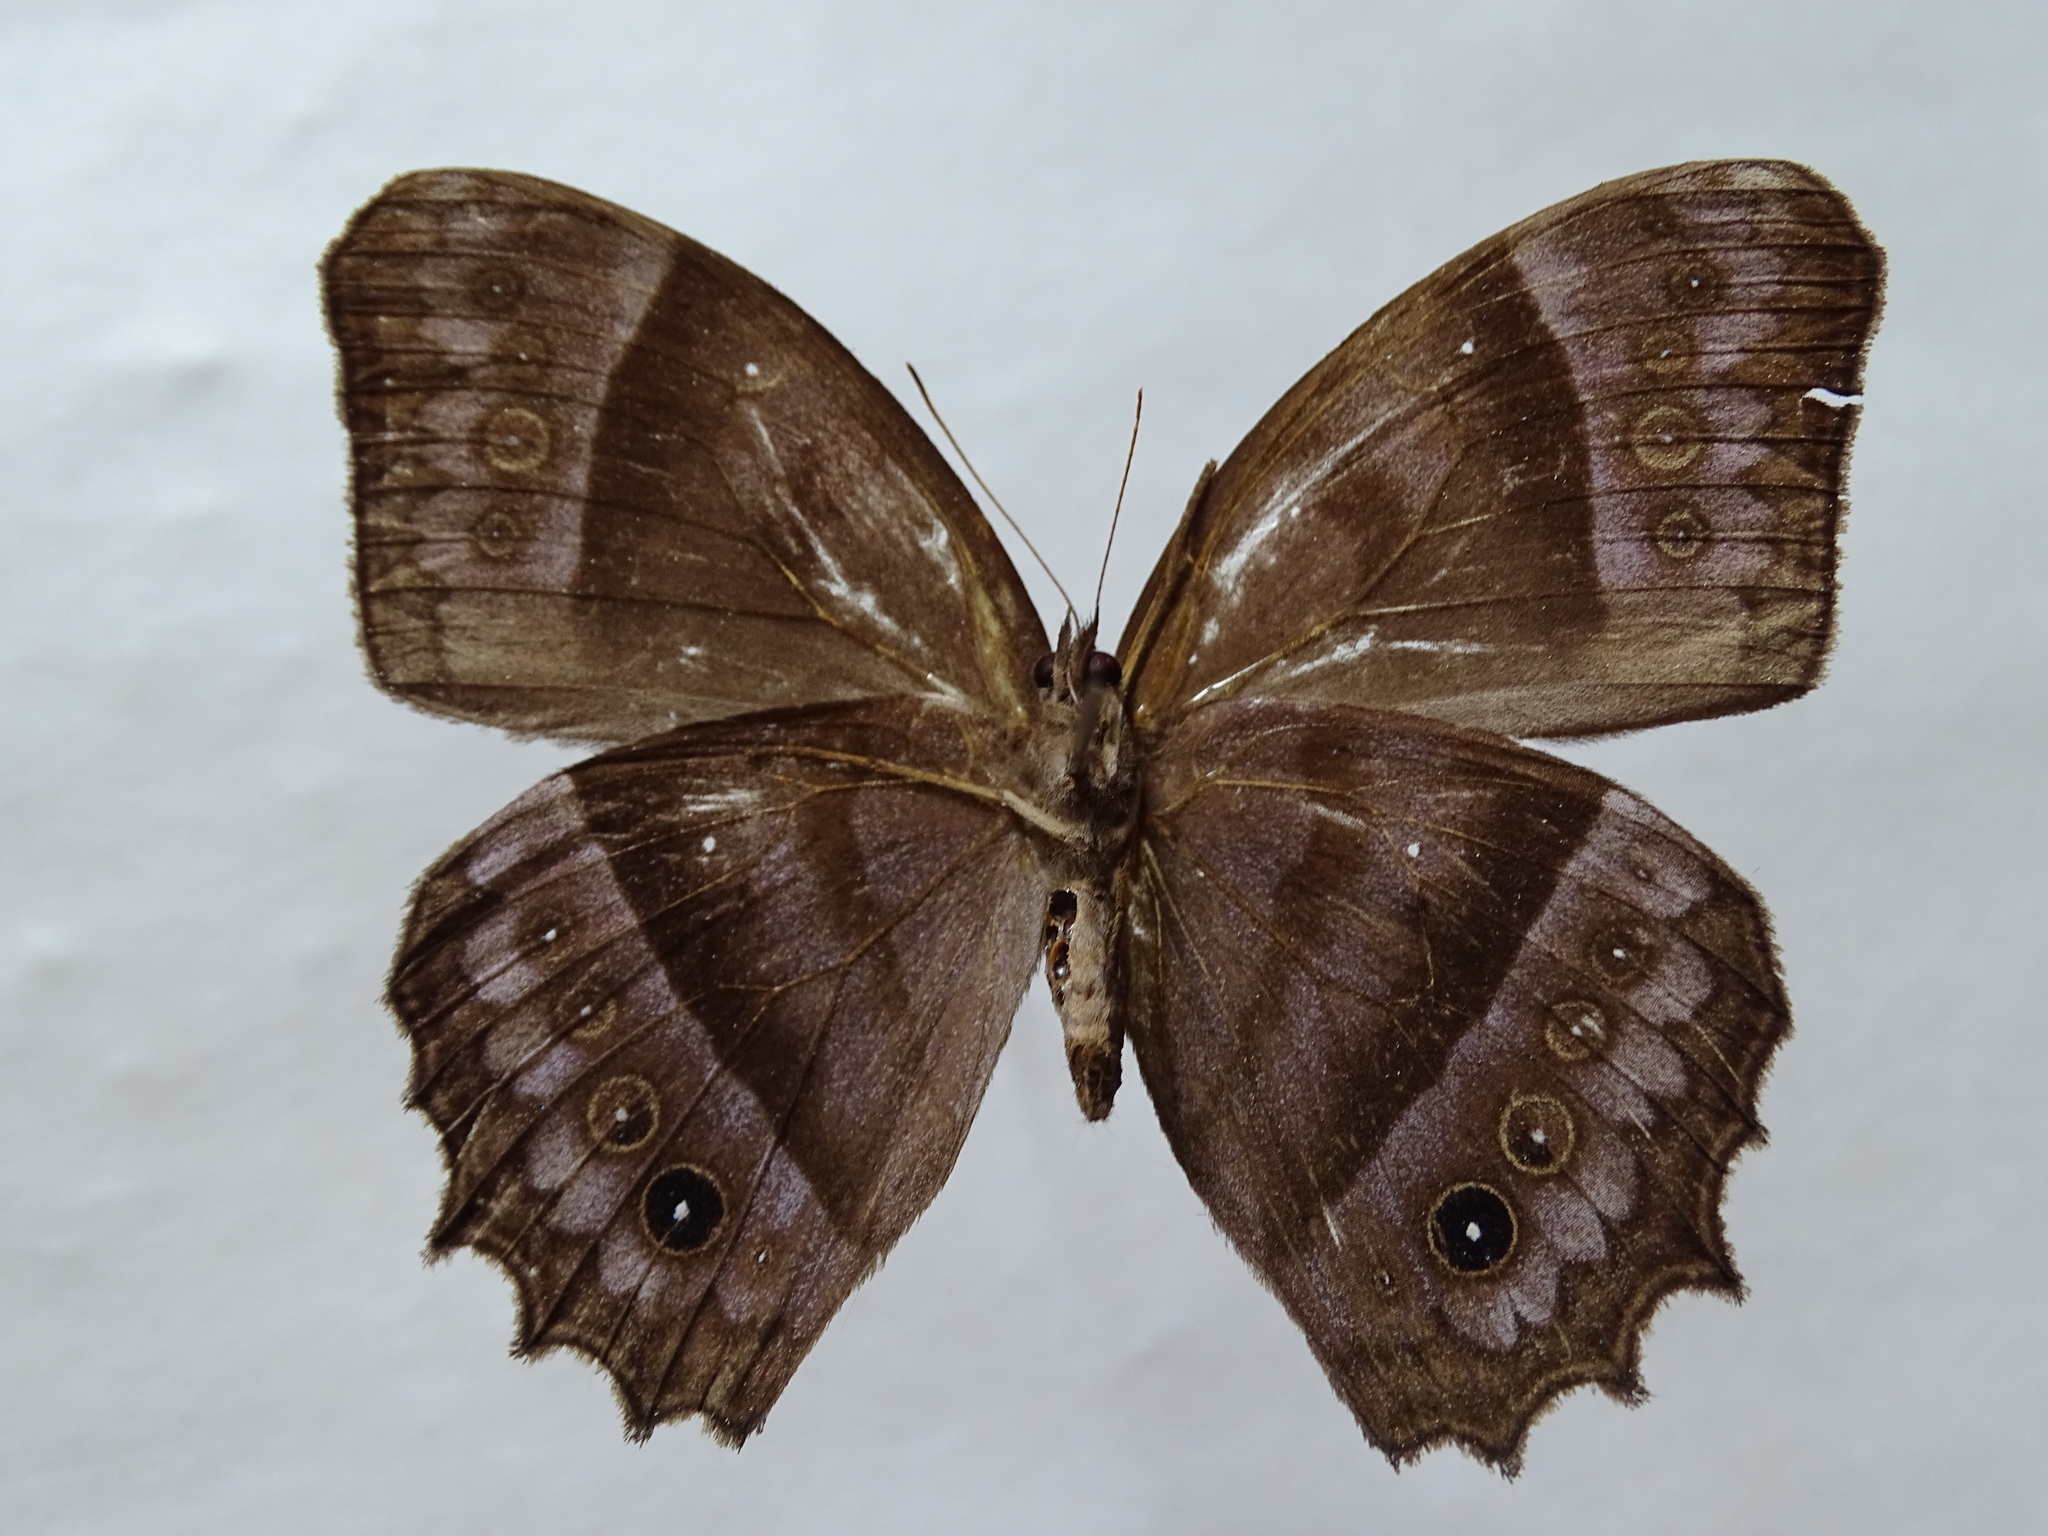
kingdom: Animalia
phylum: Arthropoda
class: Insecta
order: Lepidoptera
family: Nymphalidae
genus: Taygetis
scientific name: Taygetis inconspicua
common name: Inconspicuous satyr
